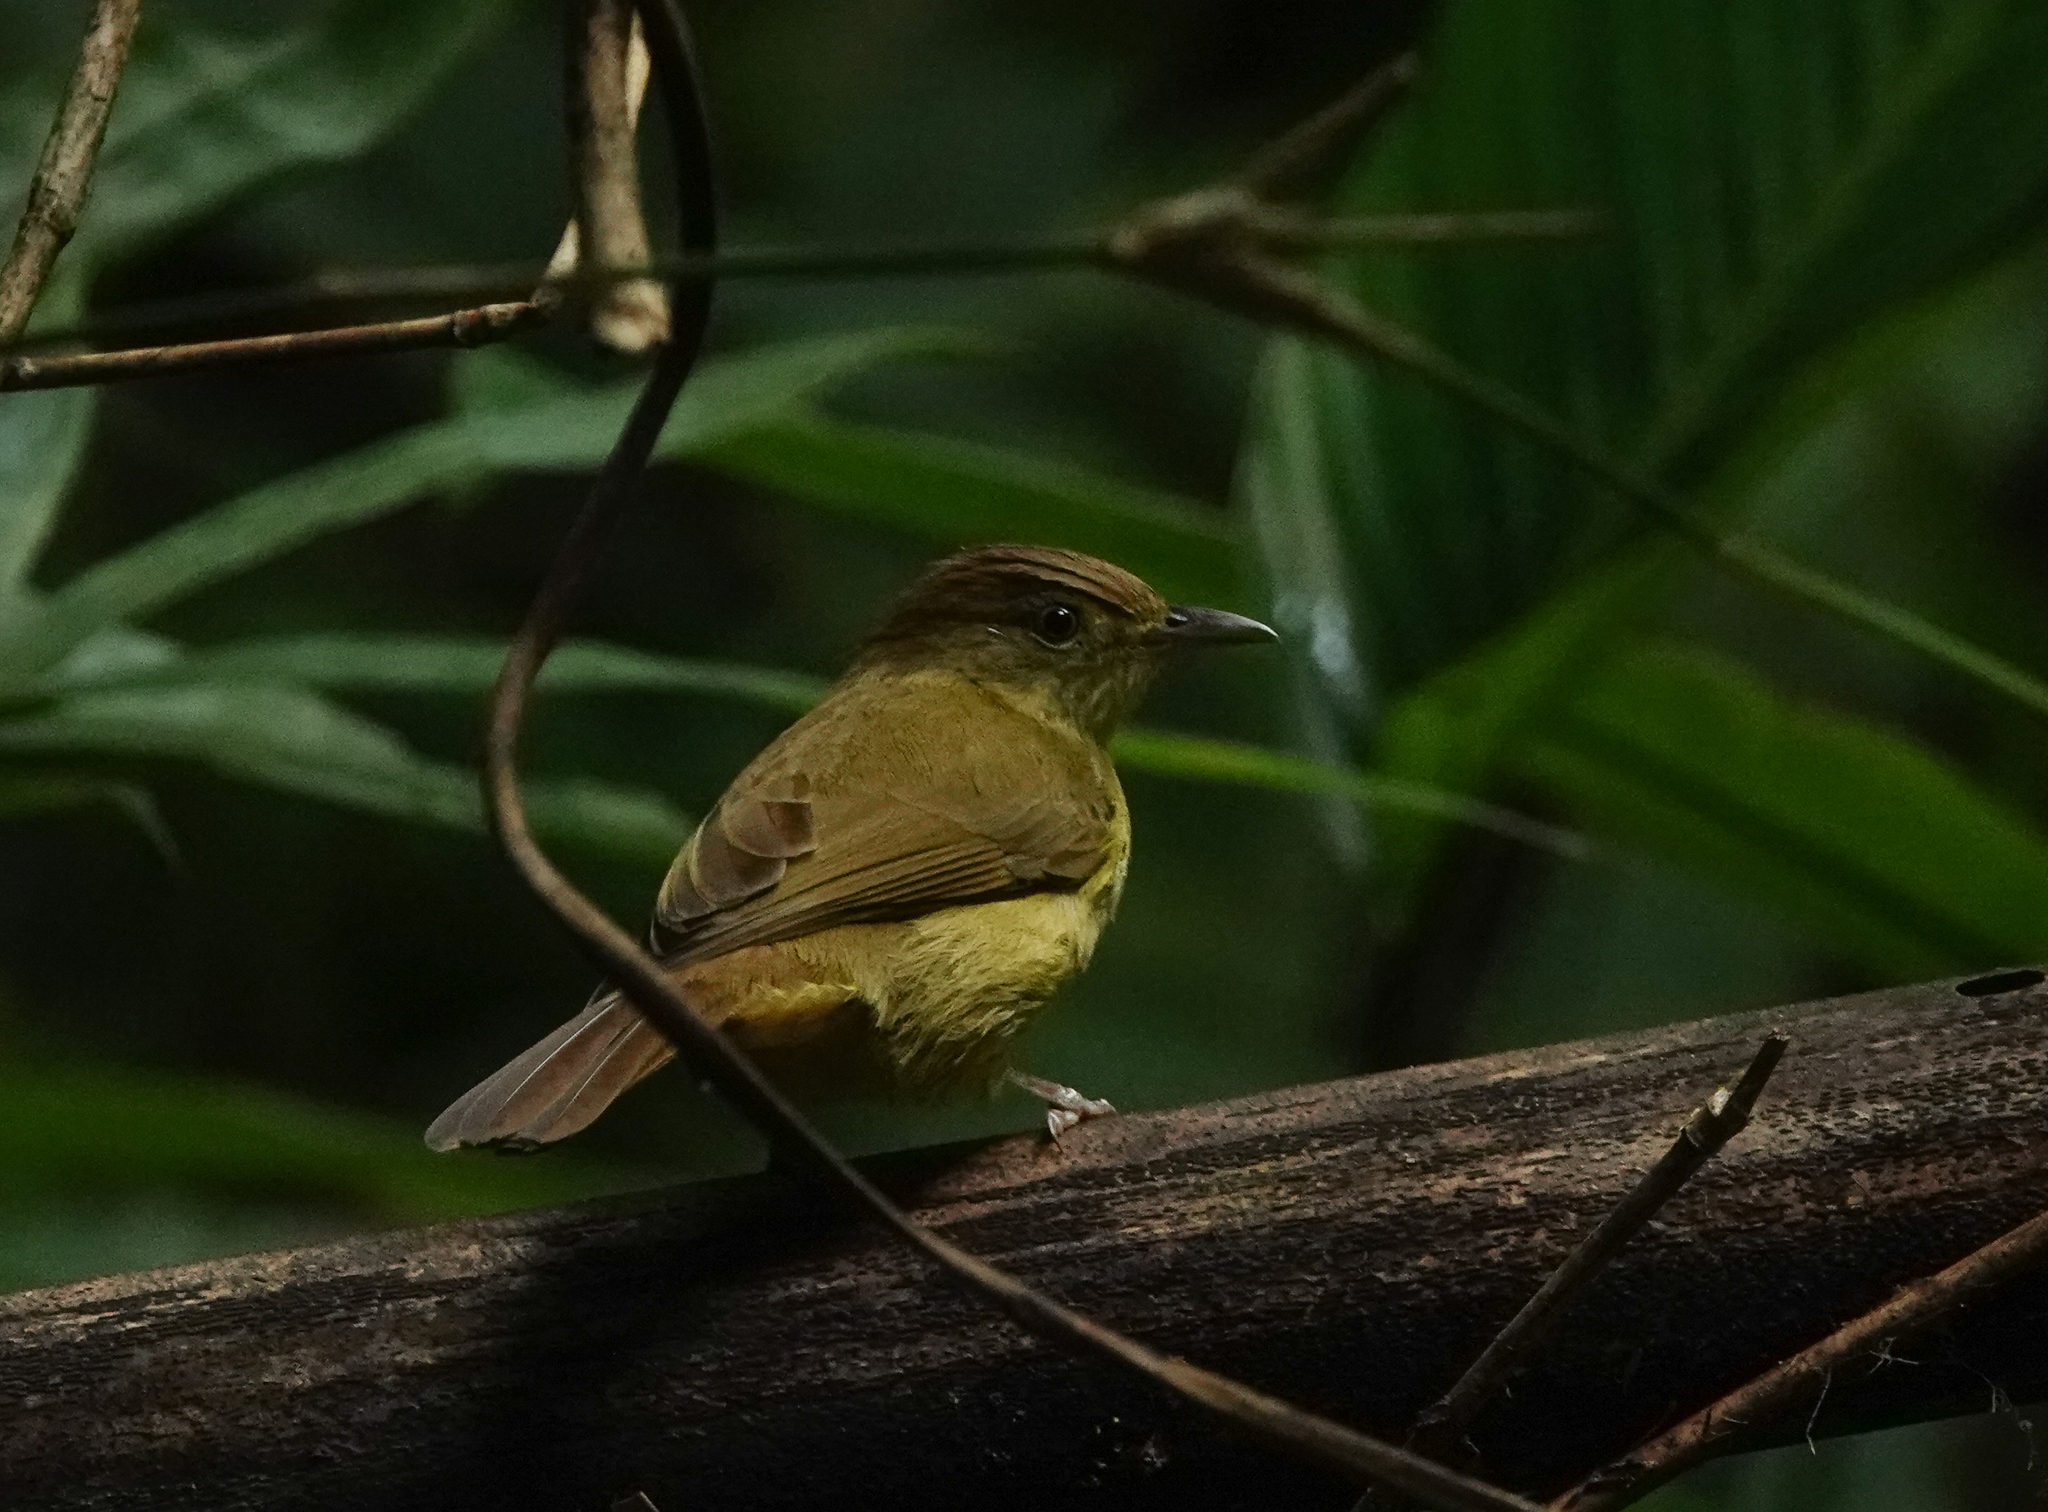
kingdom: Animalia
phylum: Chordata
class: Aves
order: Passeriformes
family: Pycnonotidae
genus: Iole
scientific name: Iole virescens
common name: Olive bulbul
